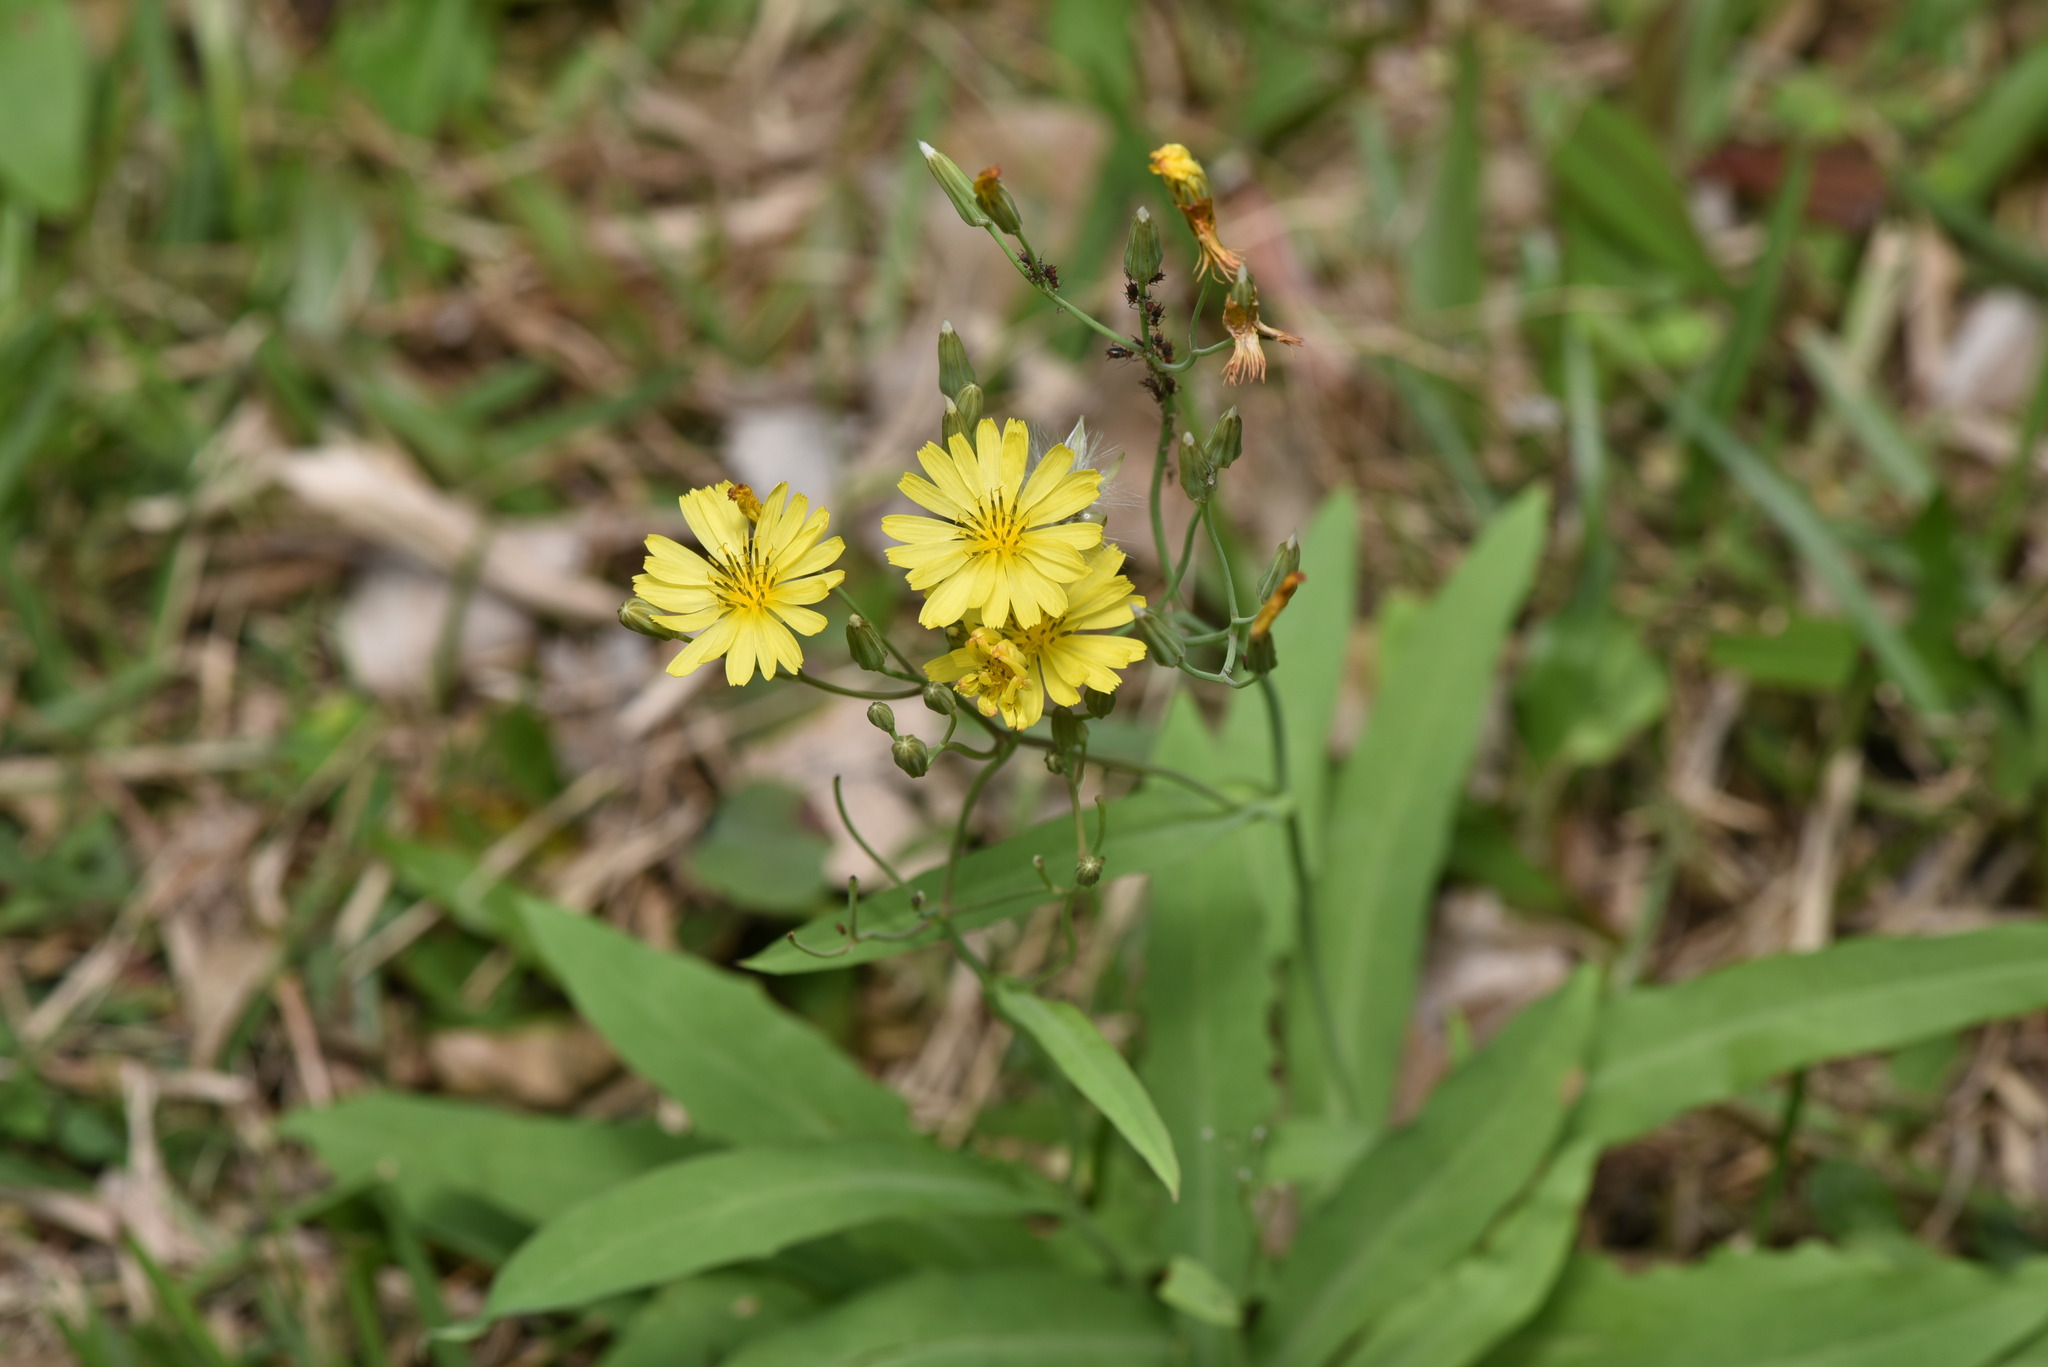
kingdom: Plantae
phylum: Tracheophyta
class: Magnoliopsida
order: Asterales
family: Asteraceae
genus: Ixeris
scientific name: Ixeris chinensis
